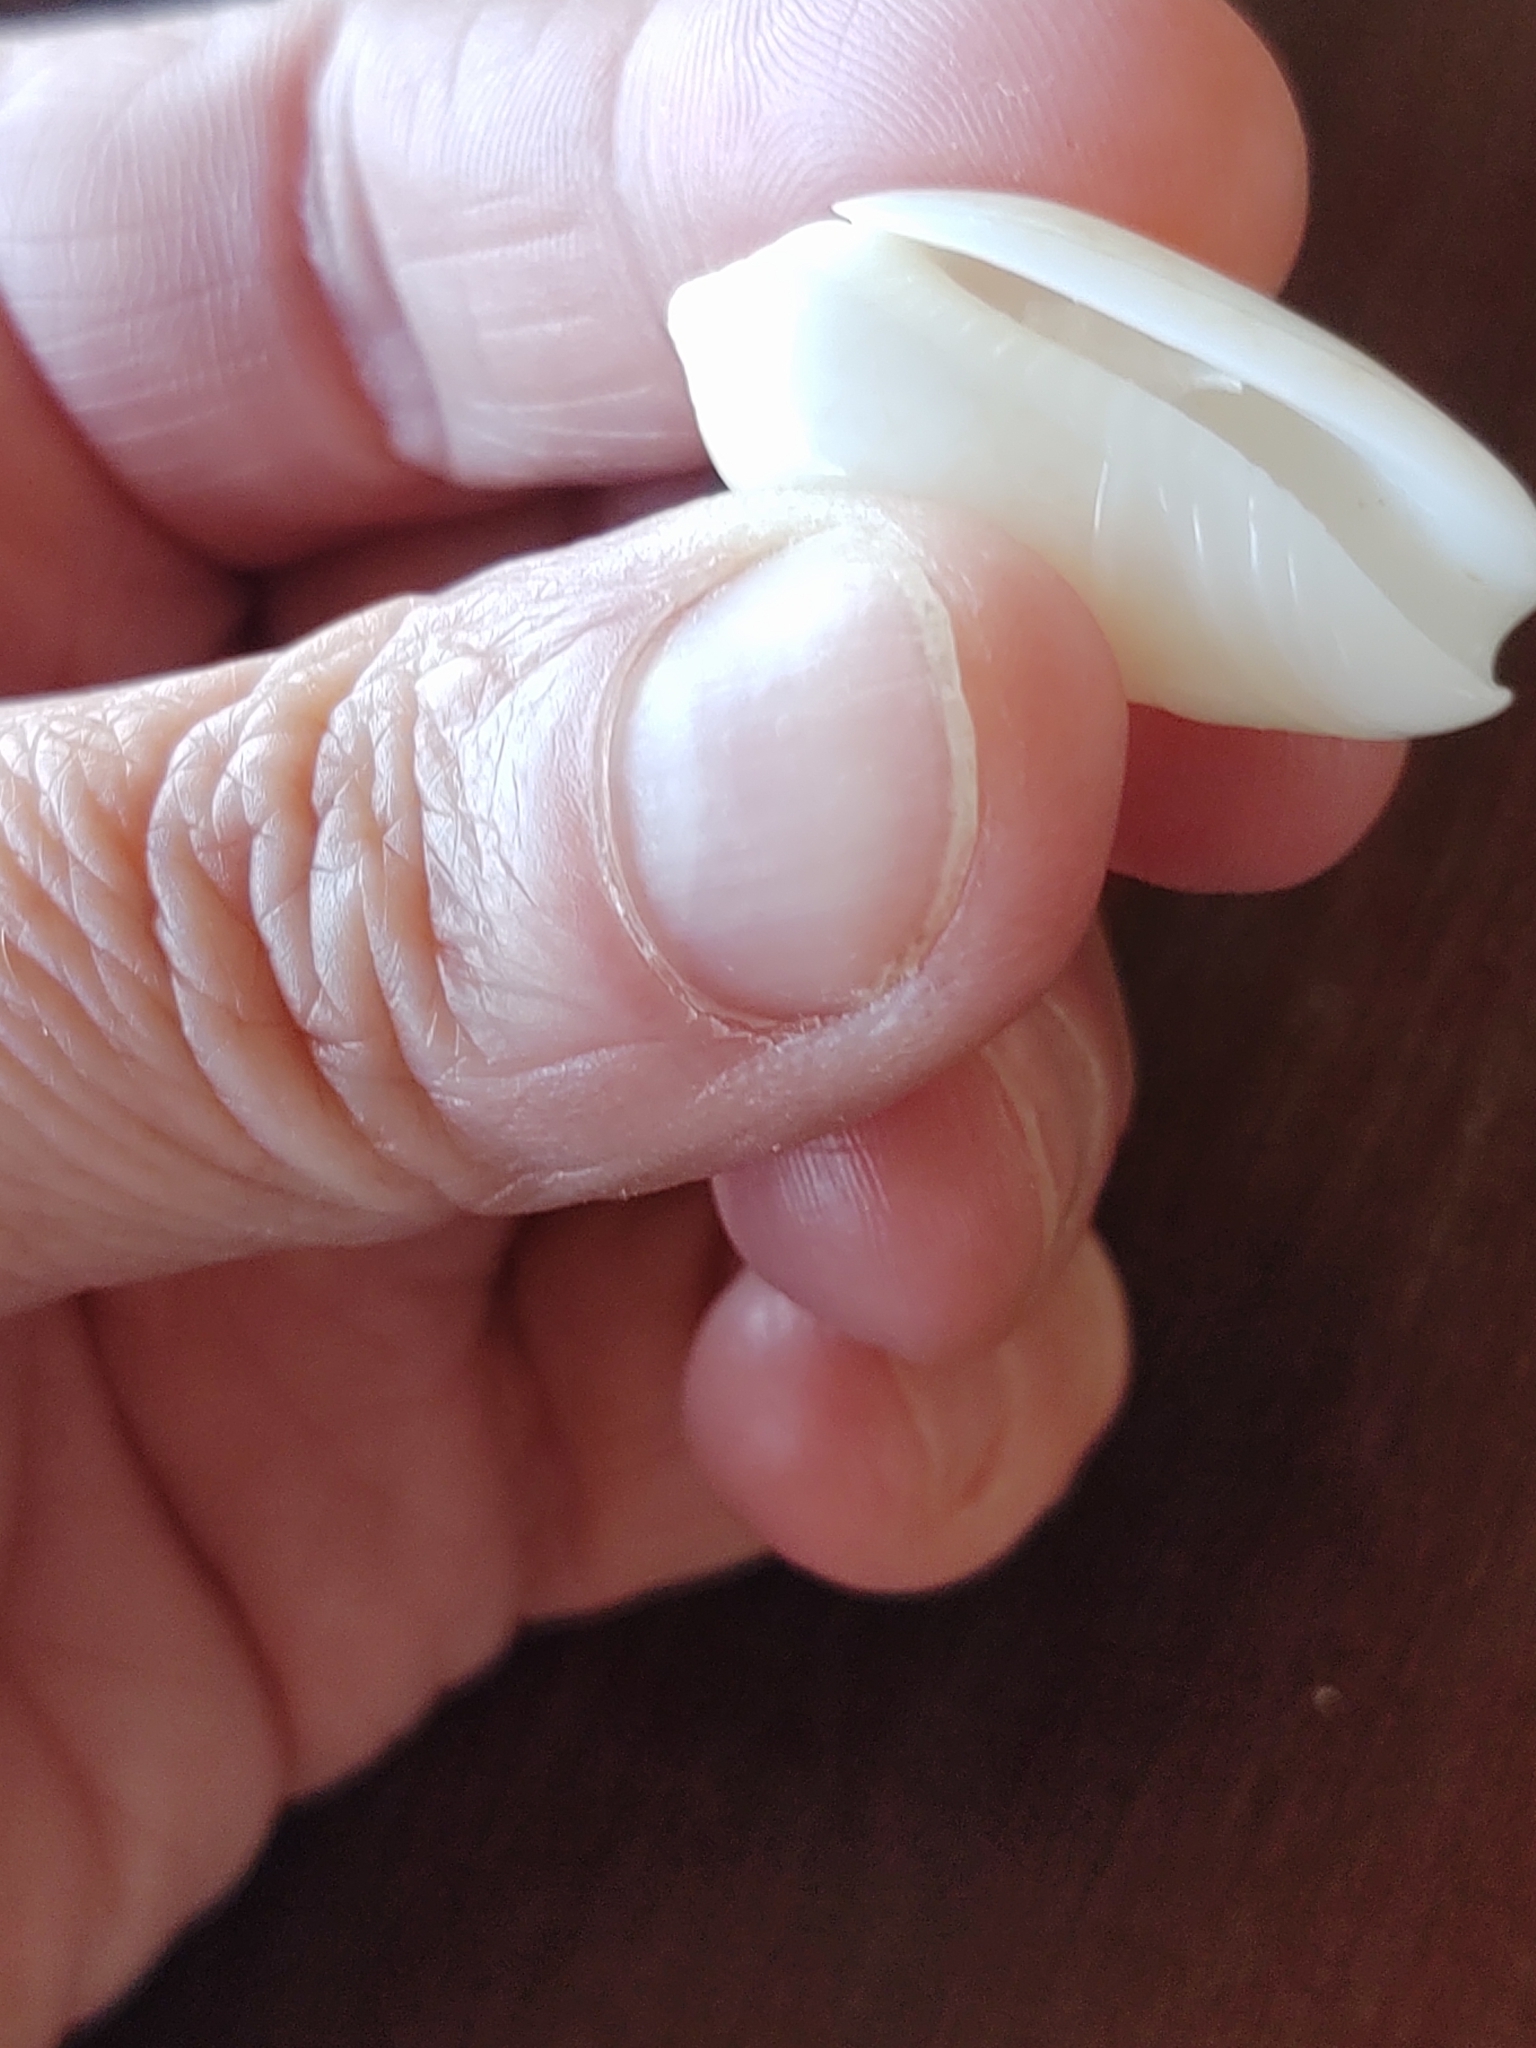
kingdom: Animalia
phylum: Mollusca
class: Gastropoda
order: Neogastropoda
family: Olividae
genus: Oliva
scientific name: Oliva reticularis
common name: Netted olive
